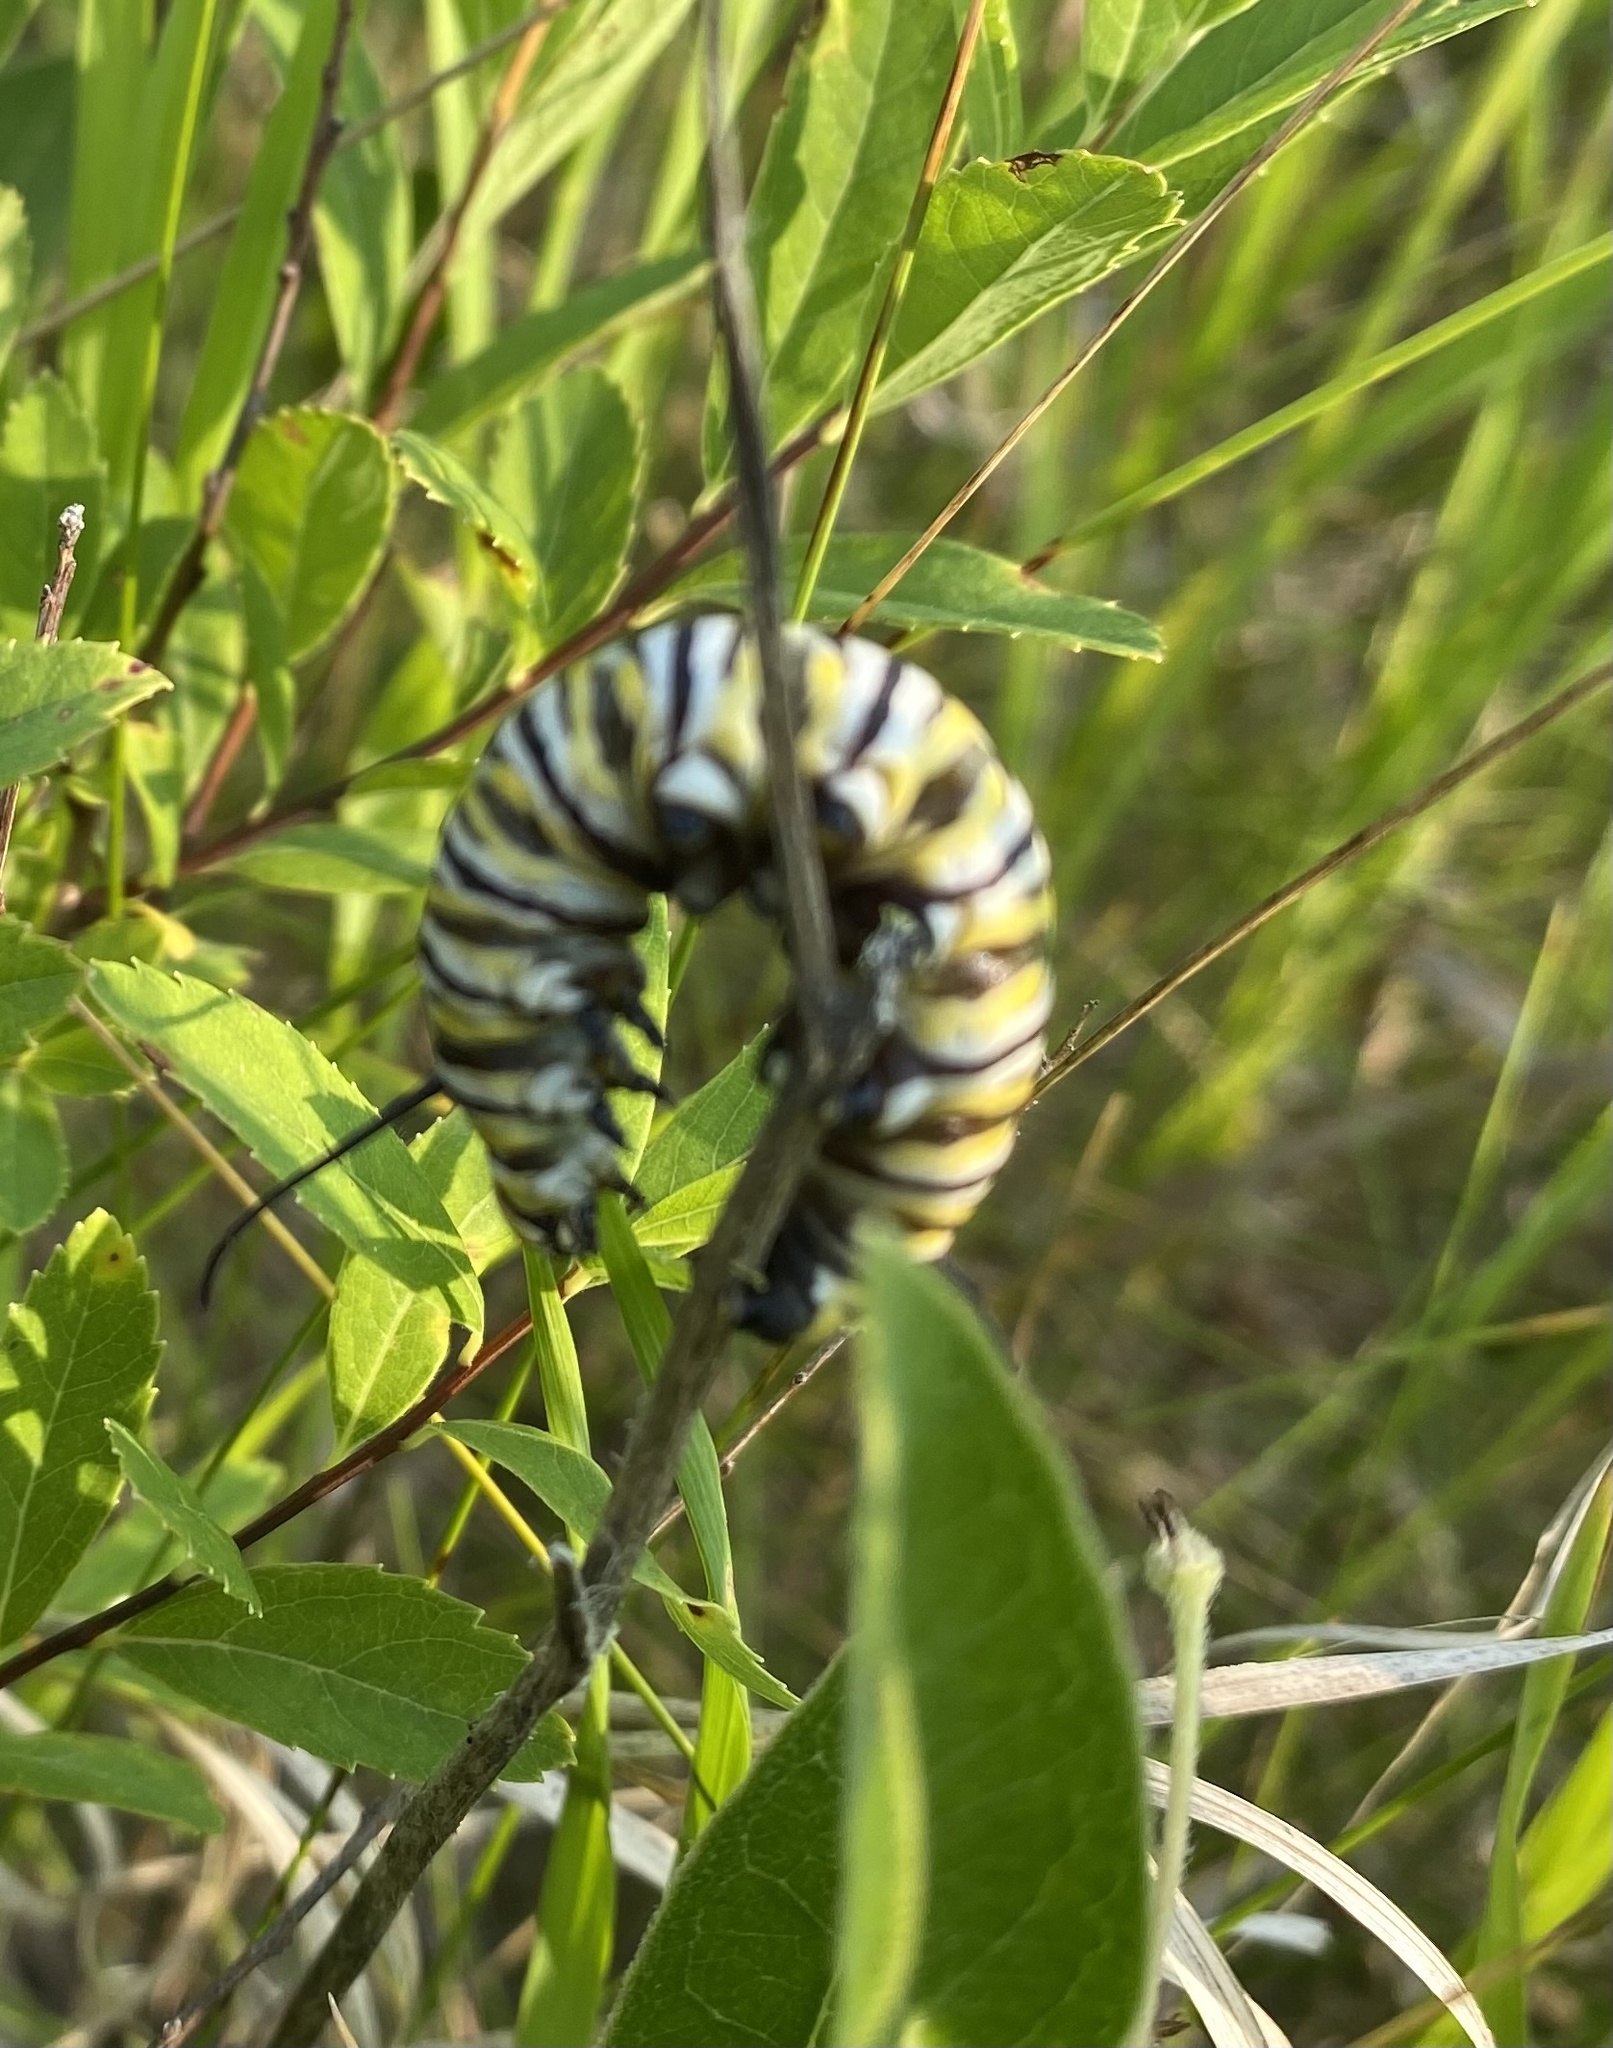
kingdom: Animalia
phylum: Arthropoda
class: Insecta
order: Lepidoptera
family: Nymphalidae
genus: Danaus
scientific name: Danaus plexippus
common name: Monarch
